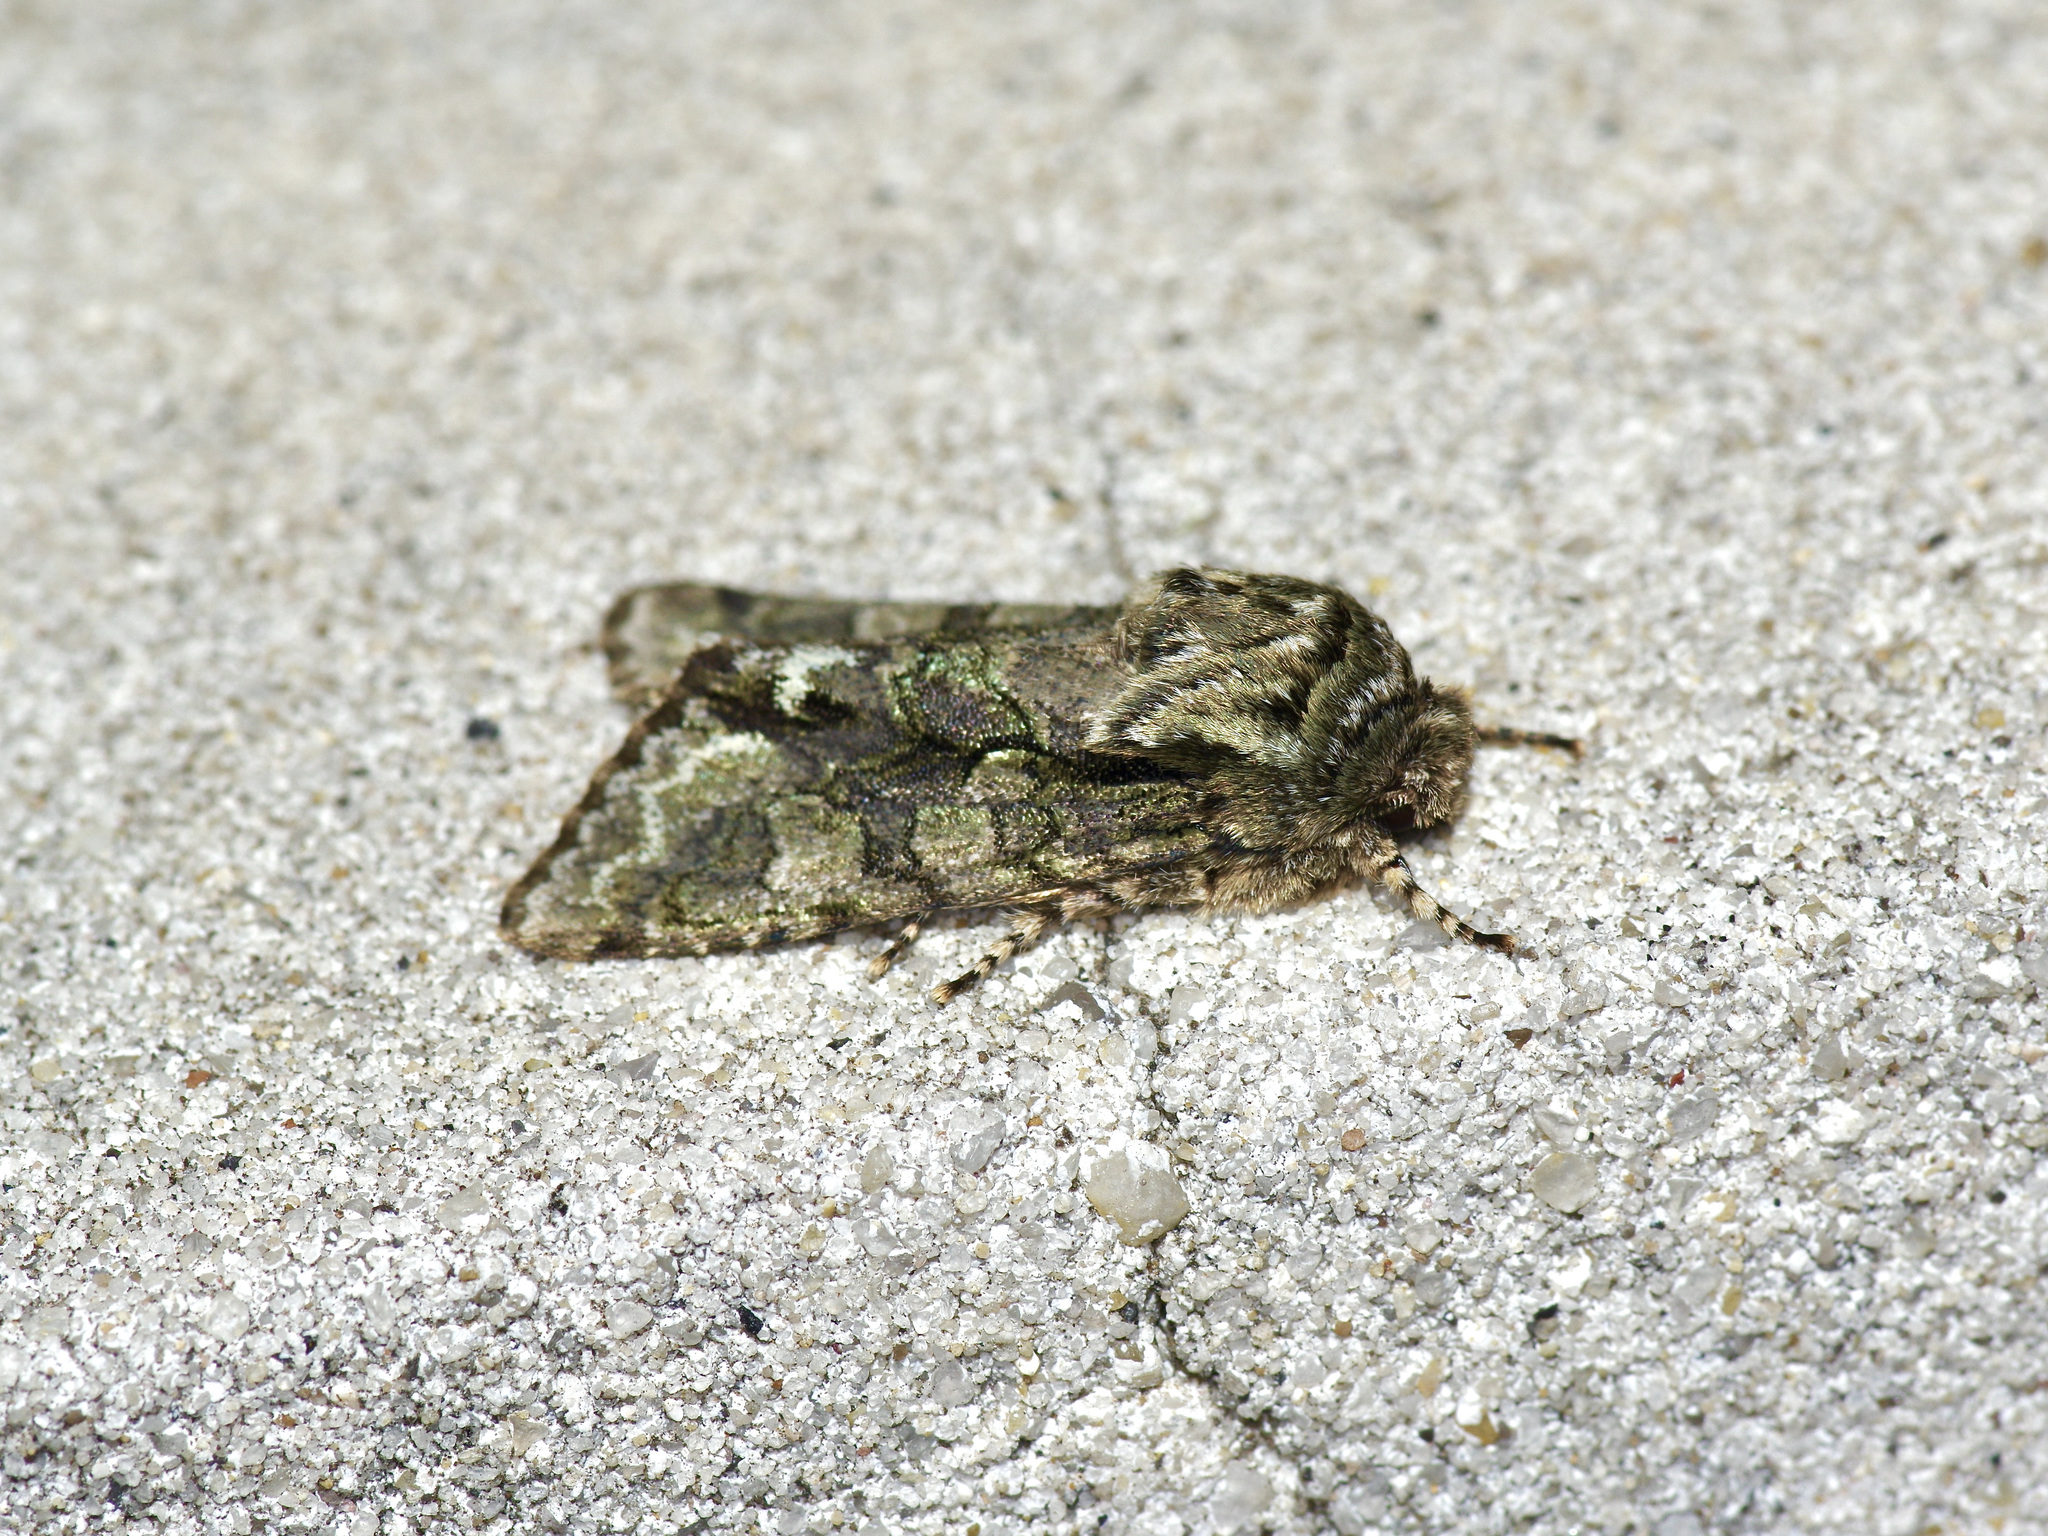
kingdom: Animalia
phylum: Arthropoda
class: Insecta
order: Lepidoptera
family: Noctuidae
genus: Psaphida
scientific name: Psaphida resumens
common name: Figure-eight sallow
